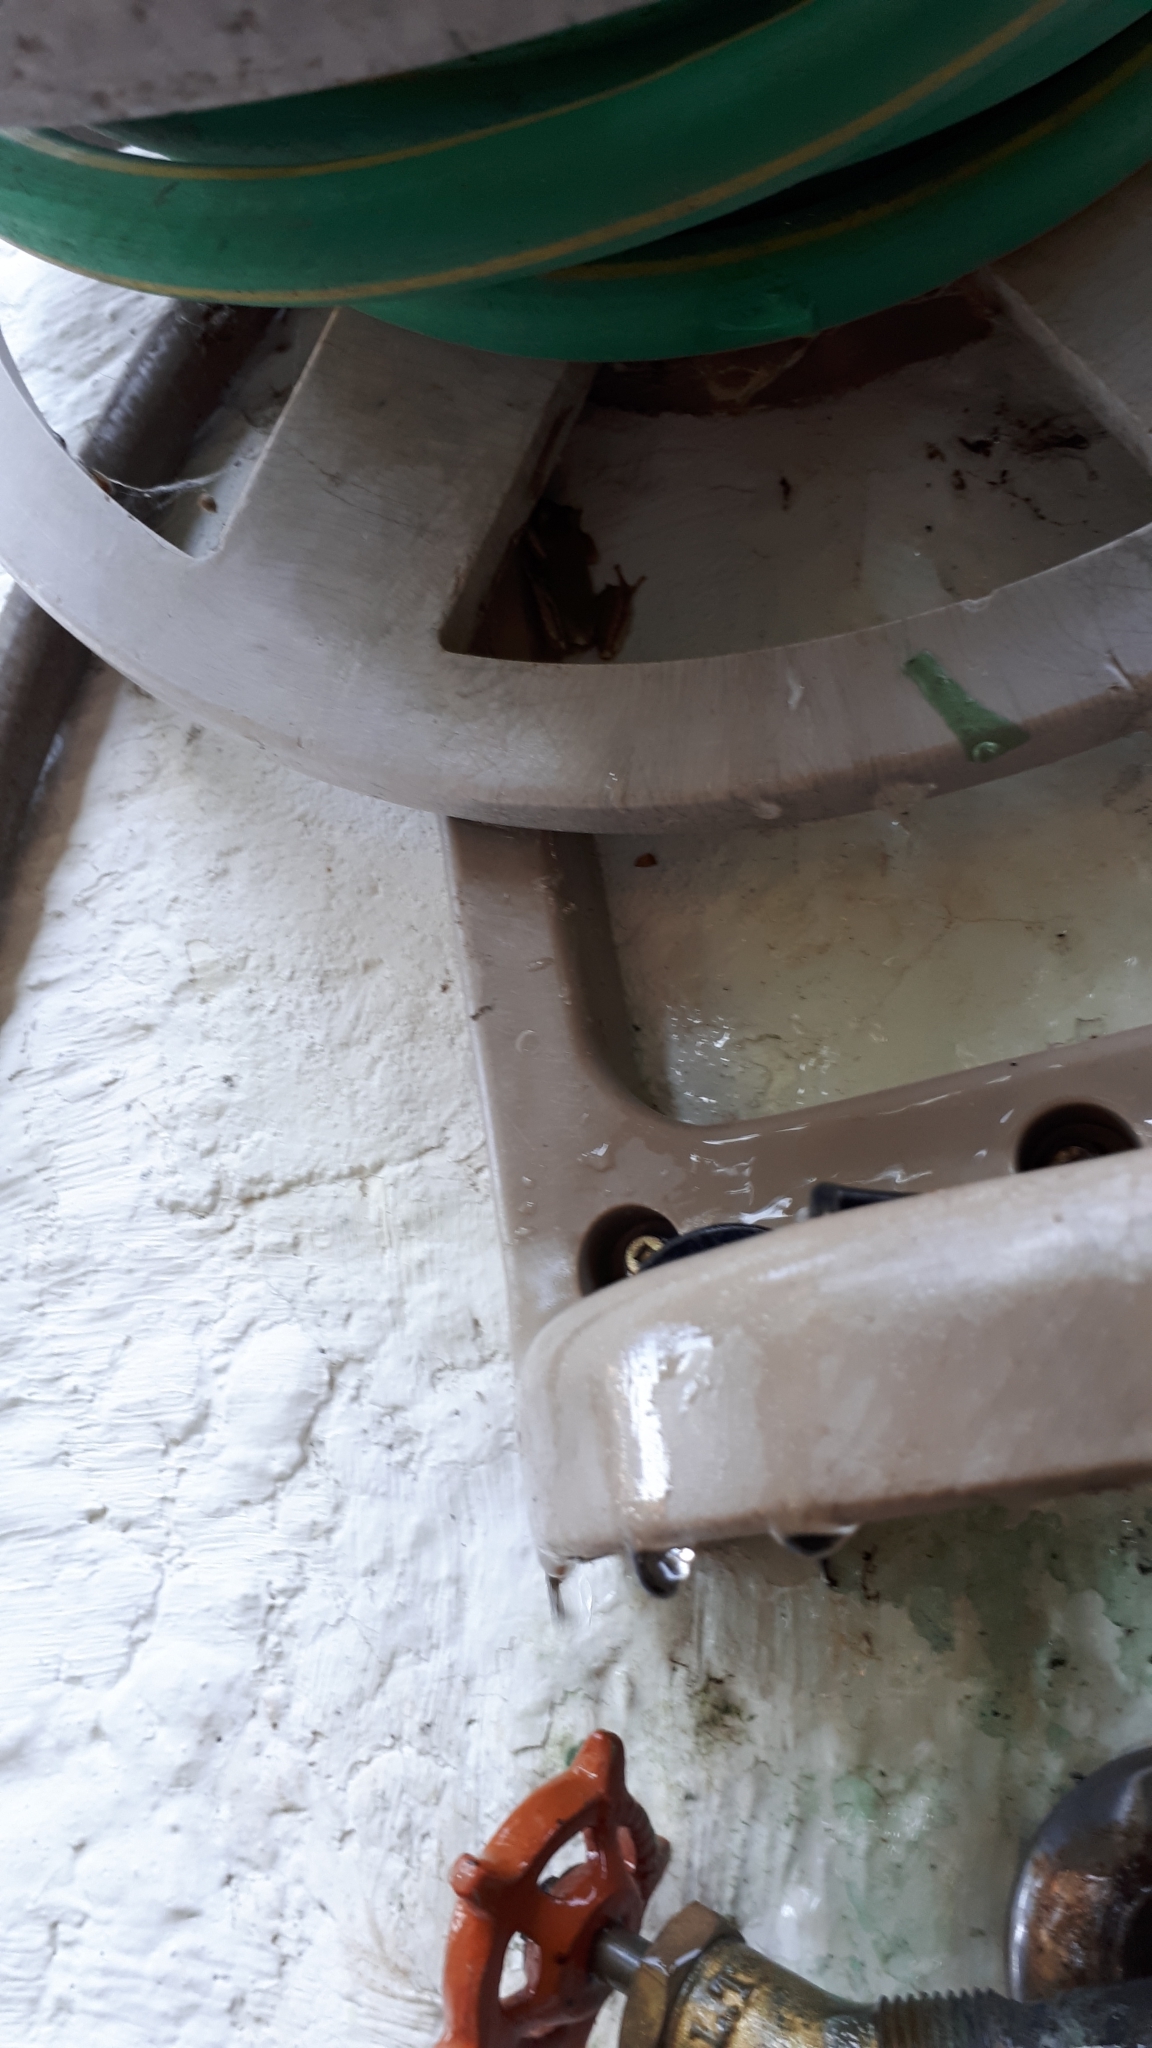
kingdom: Animalia
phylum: Chordata
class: Amphibia
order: Anura
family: Hylidae
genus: Pseudacris
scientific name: Pseudacris regilla
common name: Pacific chorus frog
